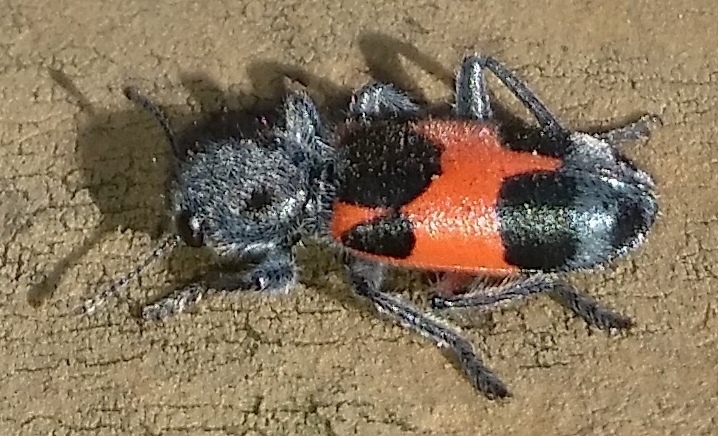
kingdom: Animalia
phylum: Arthropoda
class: Insecta
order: Coleoptera
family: Cleridae
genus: Enoclerus
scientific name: Enoclerus eximius
